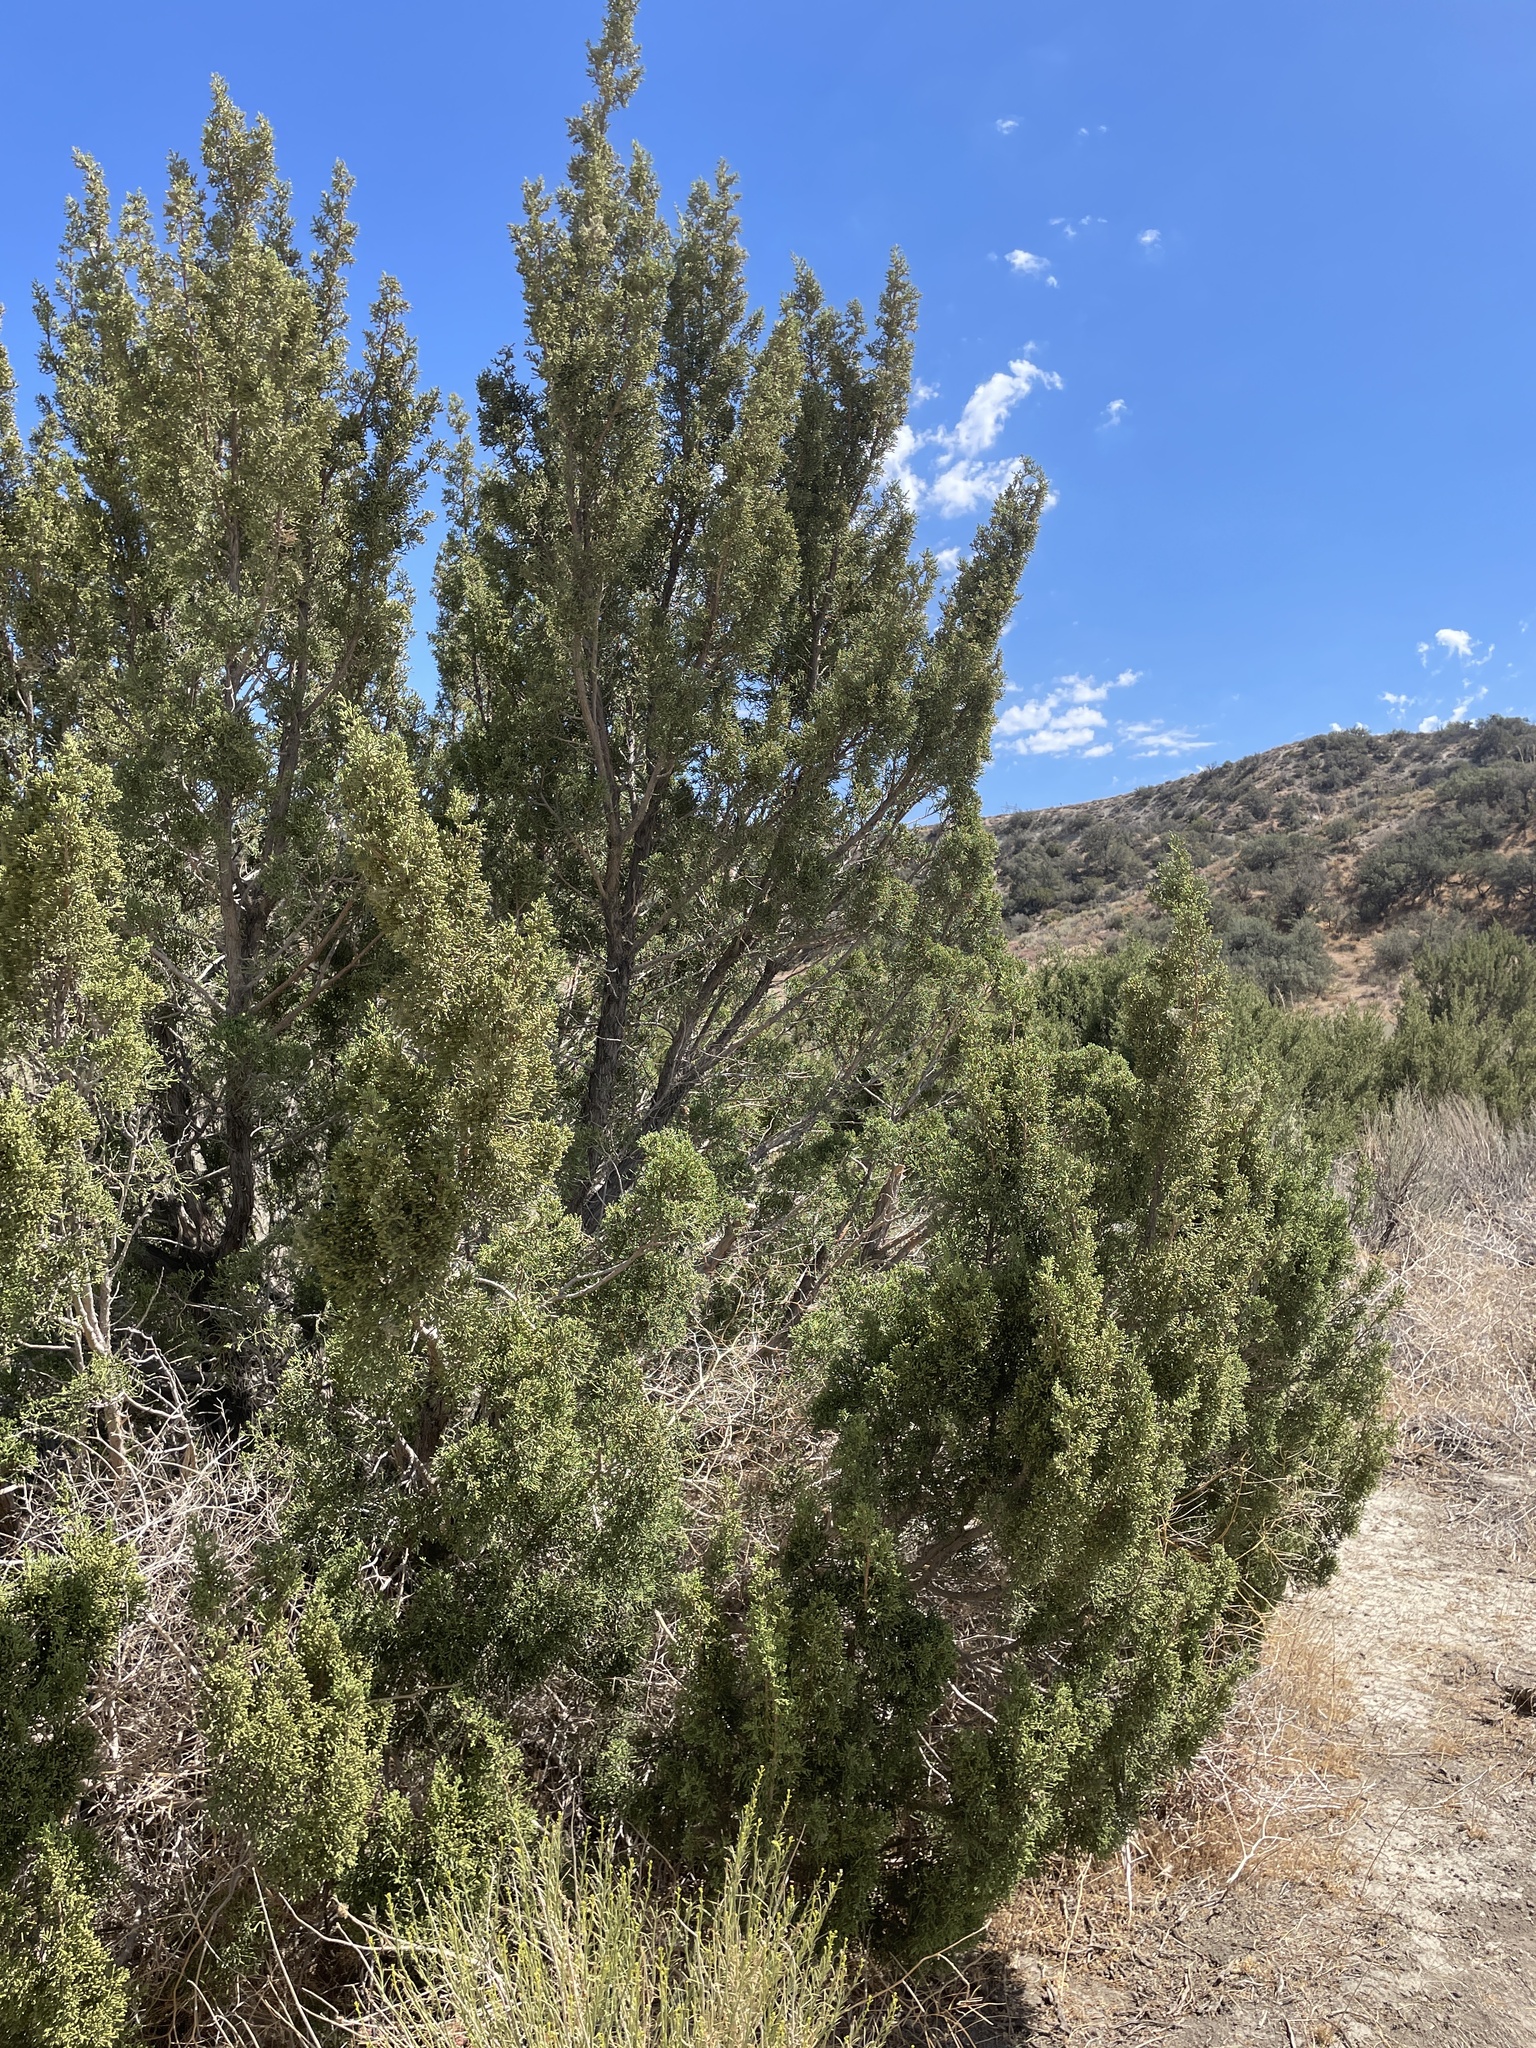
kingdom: Plantae
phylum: Tracheophyta
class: Pinopsida
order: Pinales
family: Cupressaceae
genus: Juniperus
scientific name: Juniperus californica
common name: California juniper
